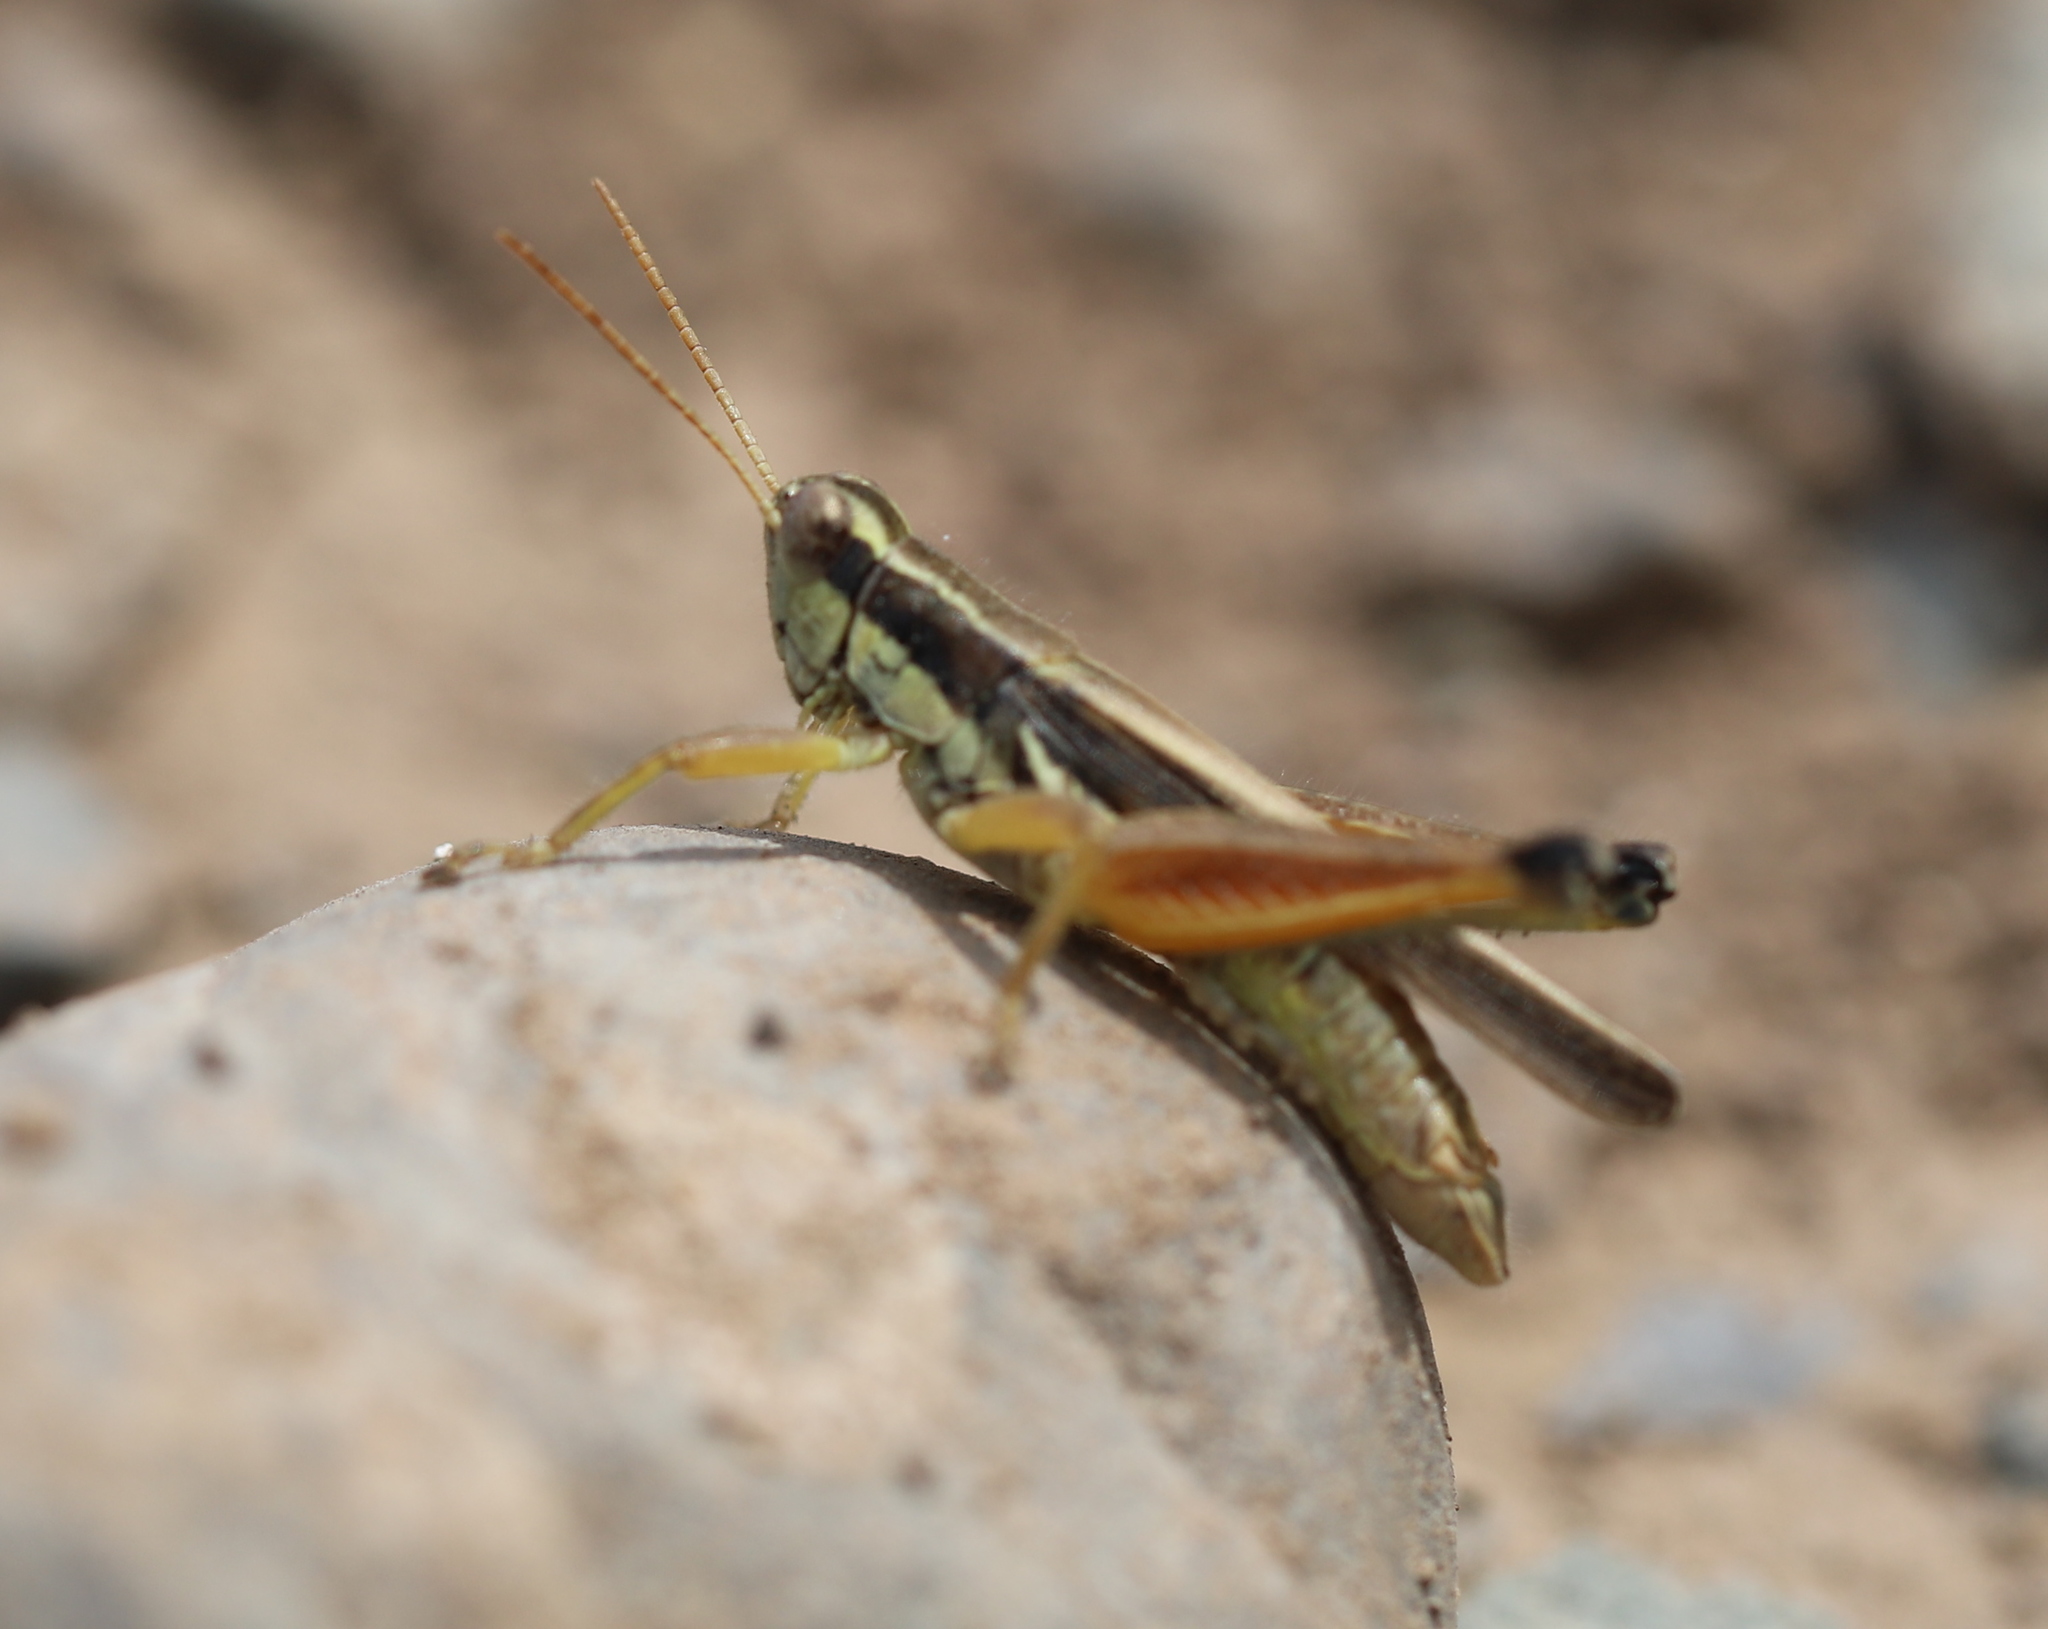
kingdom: Animalia
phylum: Arthropoda
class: Insecta
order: Orthoptera
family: Acrididae
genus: Dichroplus
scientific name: Dichroplus elongatus
